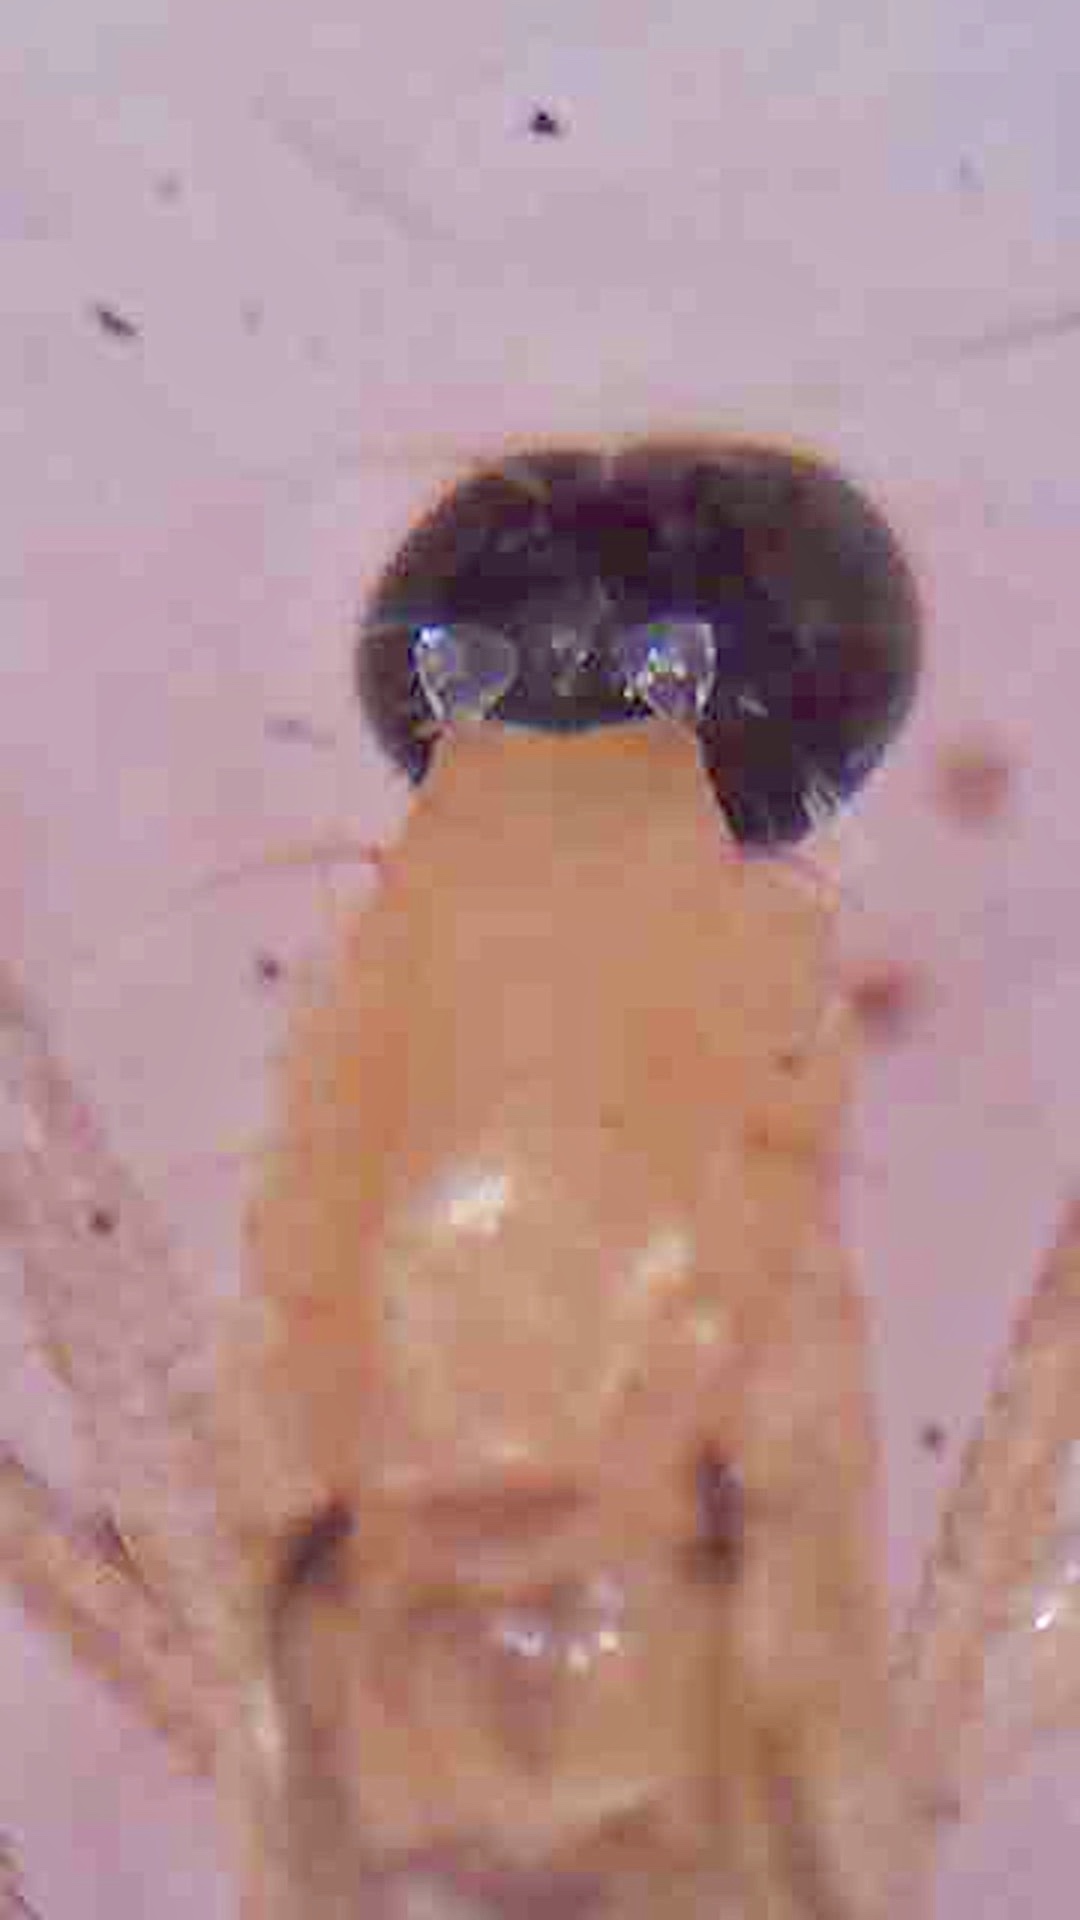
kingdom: Animalia
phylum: Arthropoda
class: Insecta
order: Diptera
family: Empididae
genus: Phyllodromia
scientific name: Phyllodromia proiecta
